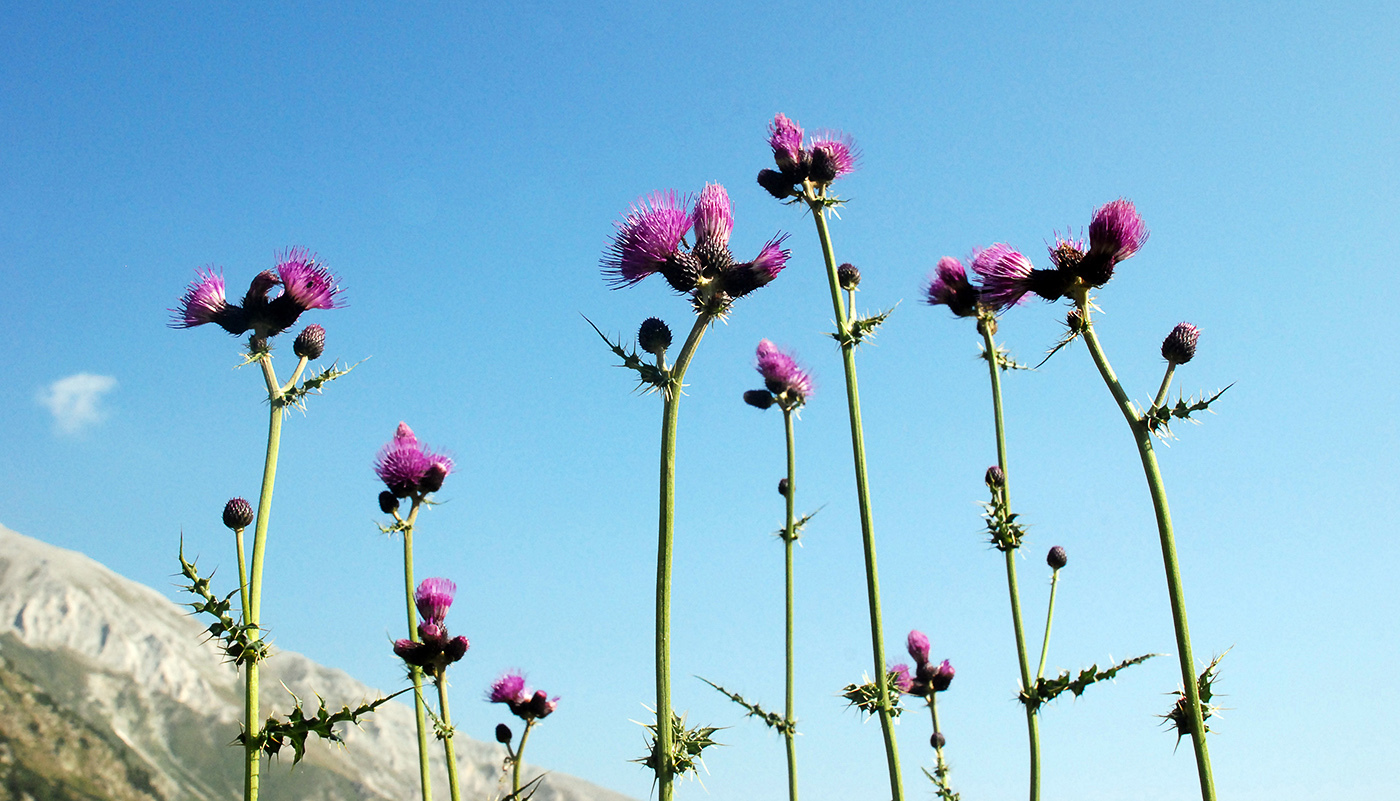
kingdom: Plantae
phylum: Tracheophyta
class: Magnoliopsida
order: Asterales
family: Asteraceae
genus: Cirsium
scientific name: Cirsium appendiculatum
